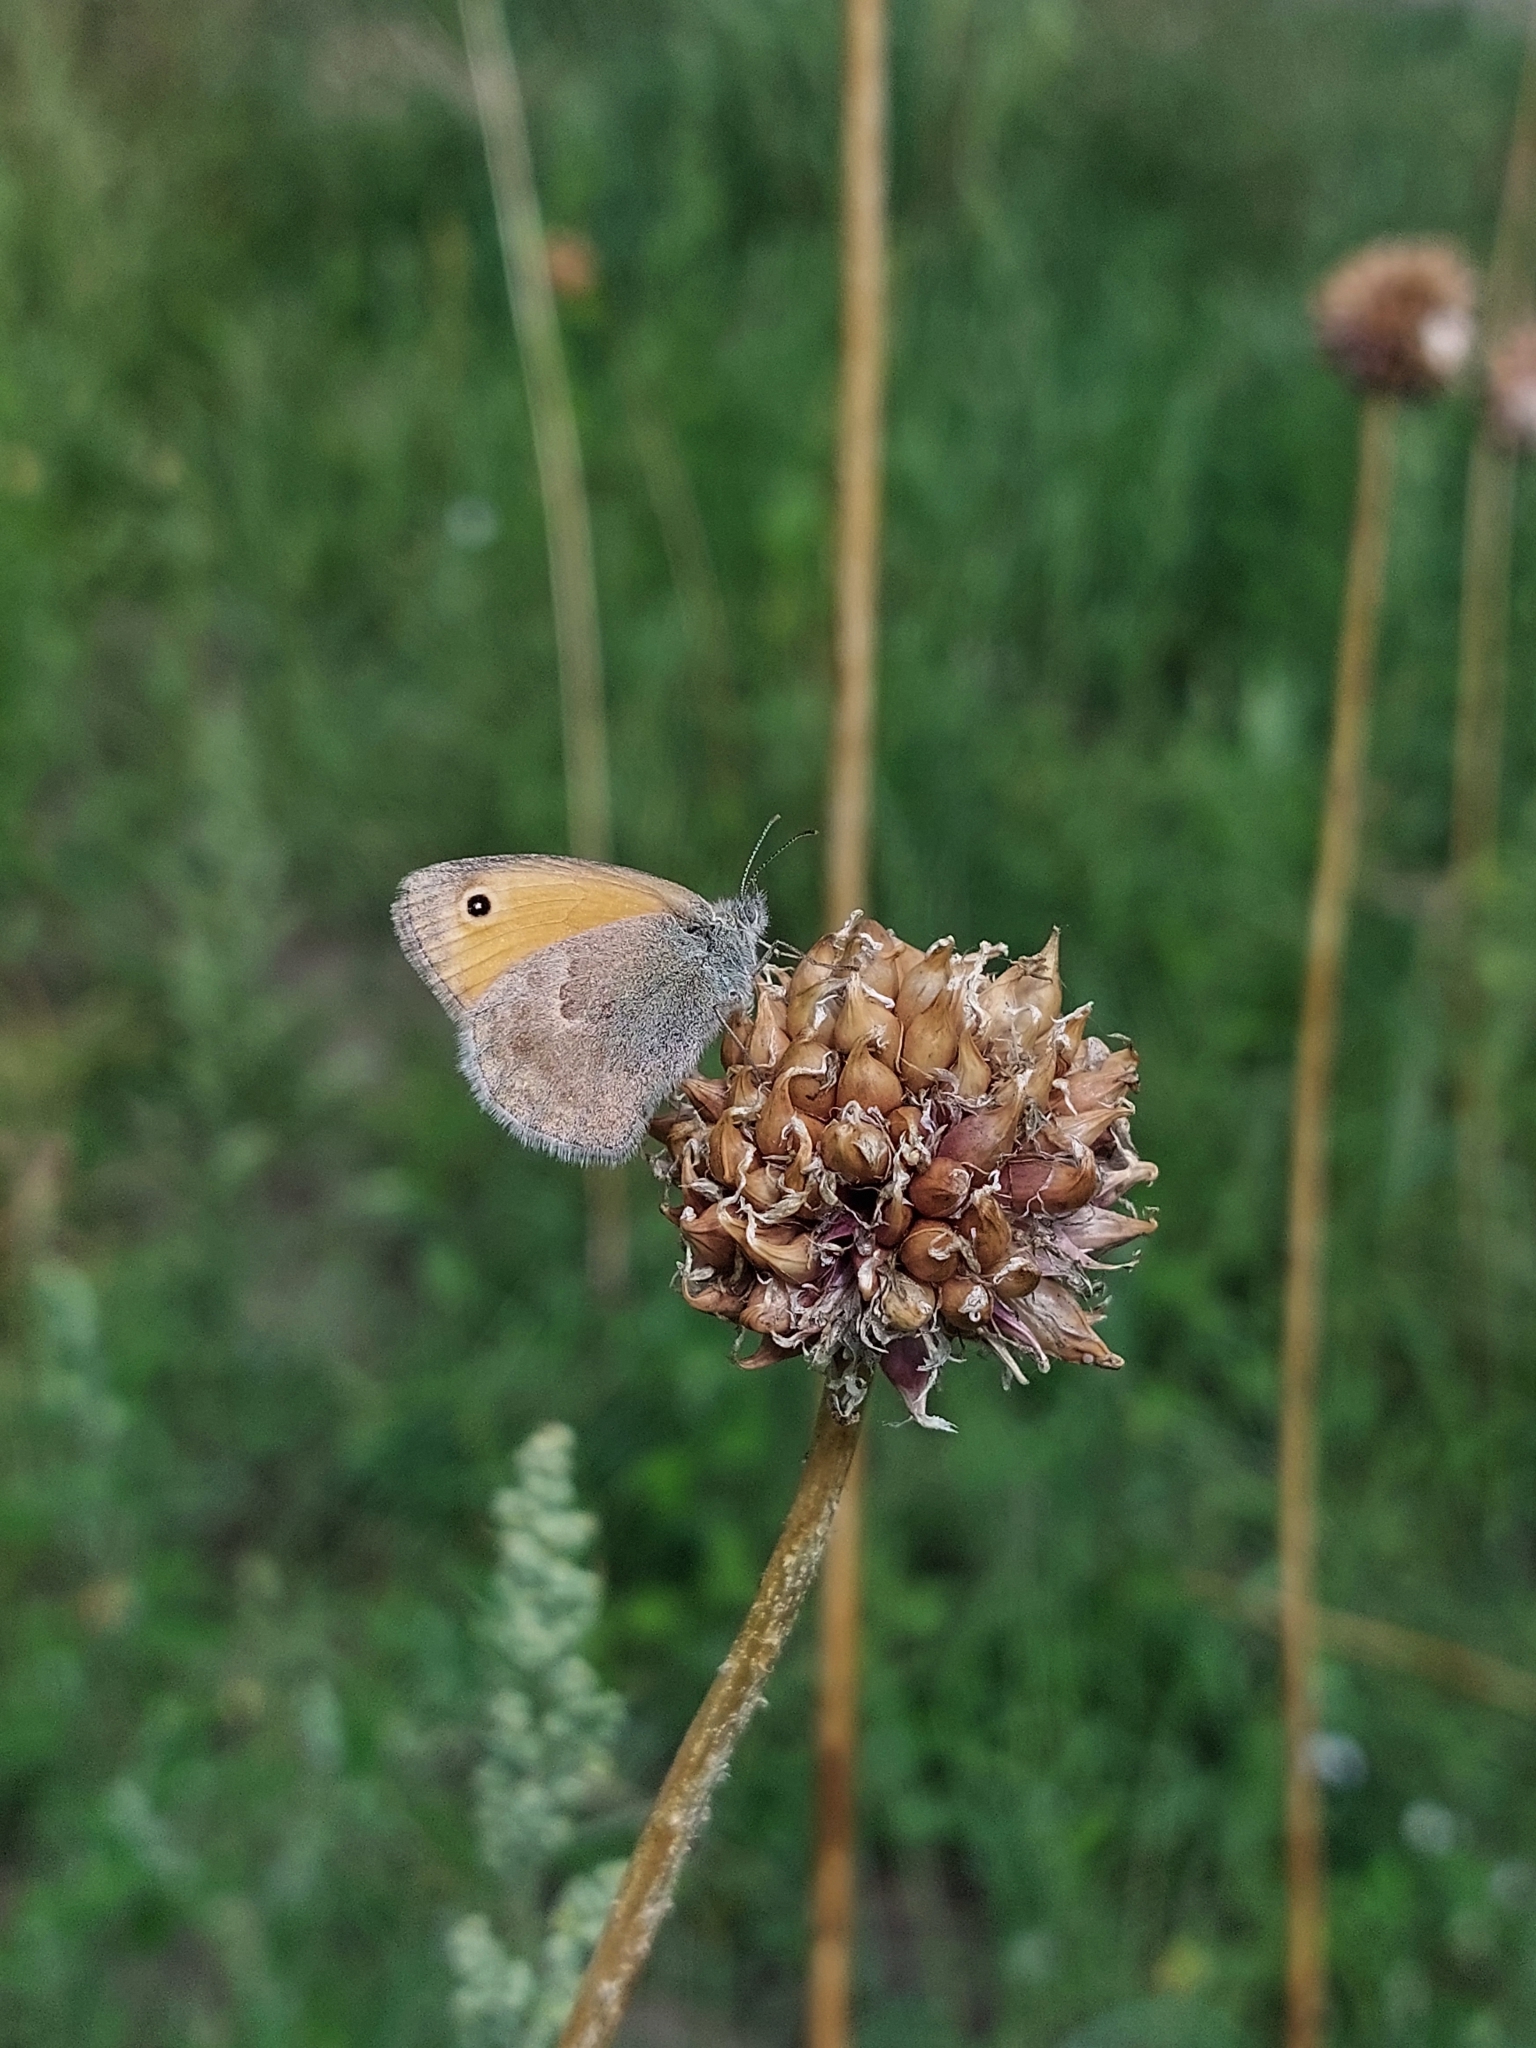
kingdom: Animalia
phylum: Arthropoda
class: Insecta
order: Lepidoptera
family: Nymphalidae
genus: Coenonympha
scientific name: Coenonympha pamphilus
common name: Small heath
